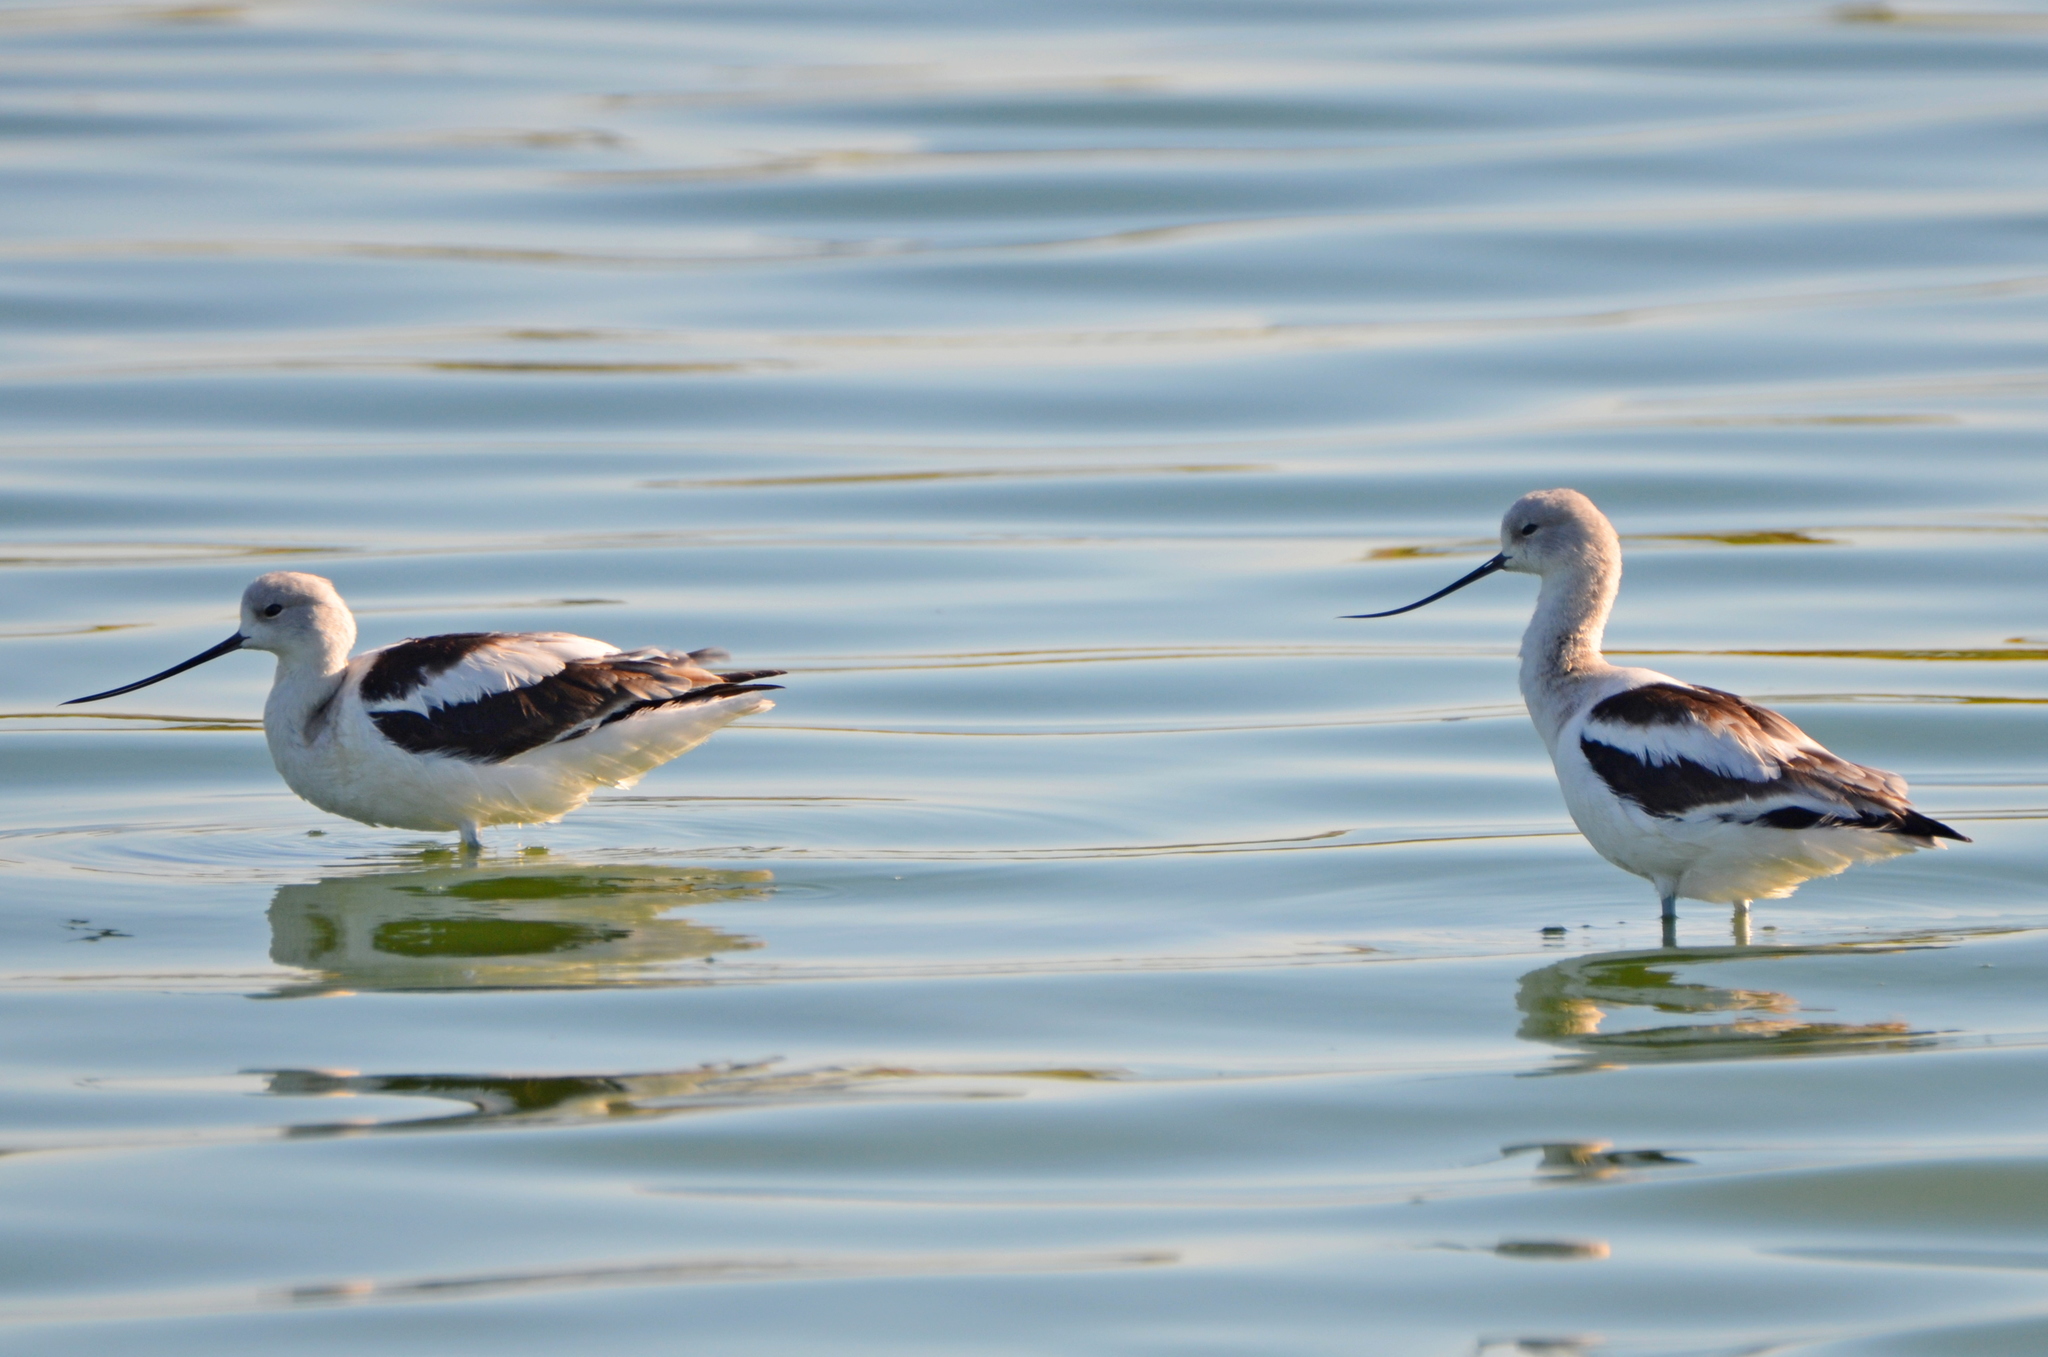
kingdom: Animalia
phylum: Chordata
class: Aves
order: Charadriiformes
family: Recurvirostridae
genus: Recurvirostra
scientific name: Recurvirostra americana
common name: American avocet
